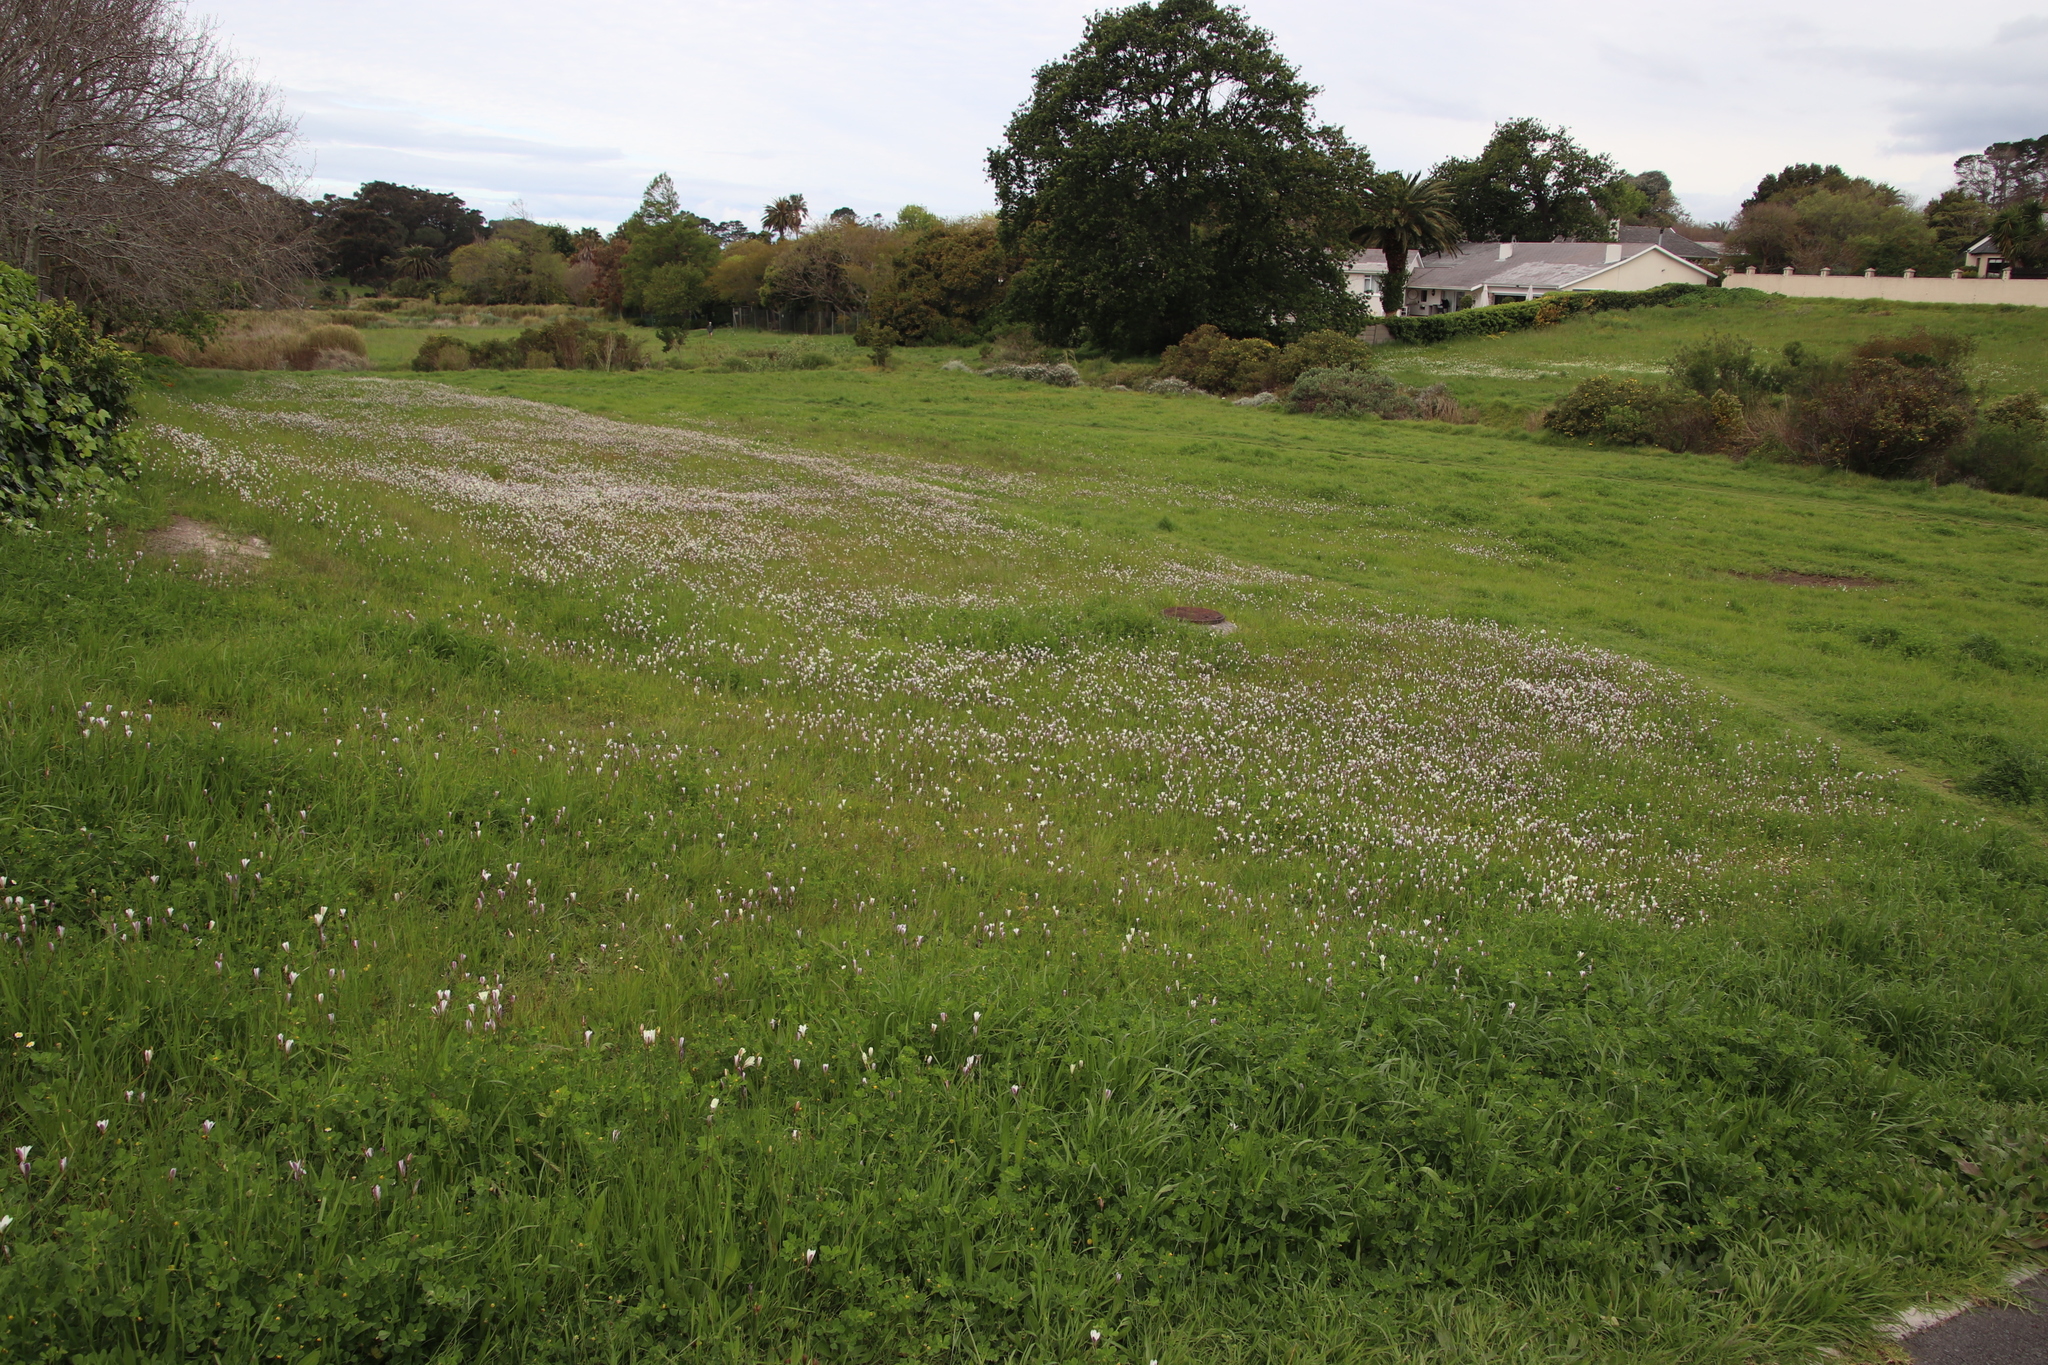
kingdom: Plantae
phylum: Tracheophyta
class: Liliopsida
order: Asparagales
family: Iridaceae
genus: Sparaxis
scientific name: Sparaxis bulbifera
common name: Harlequin-flower
